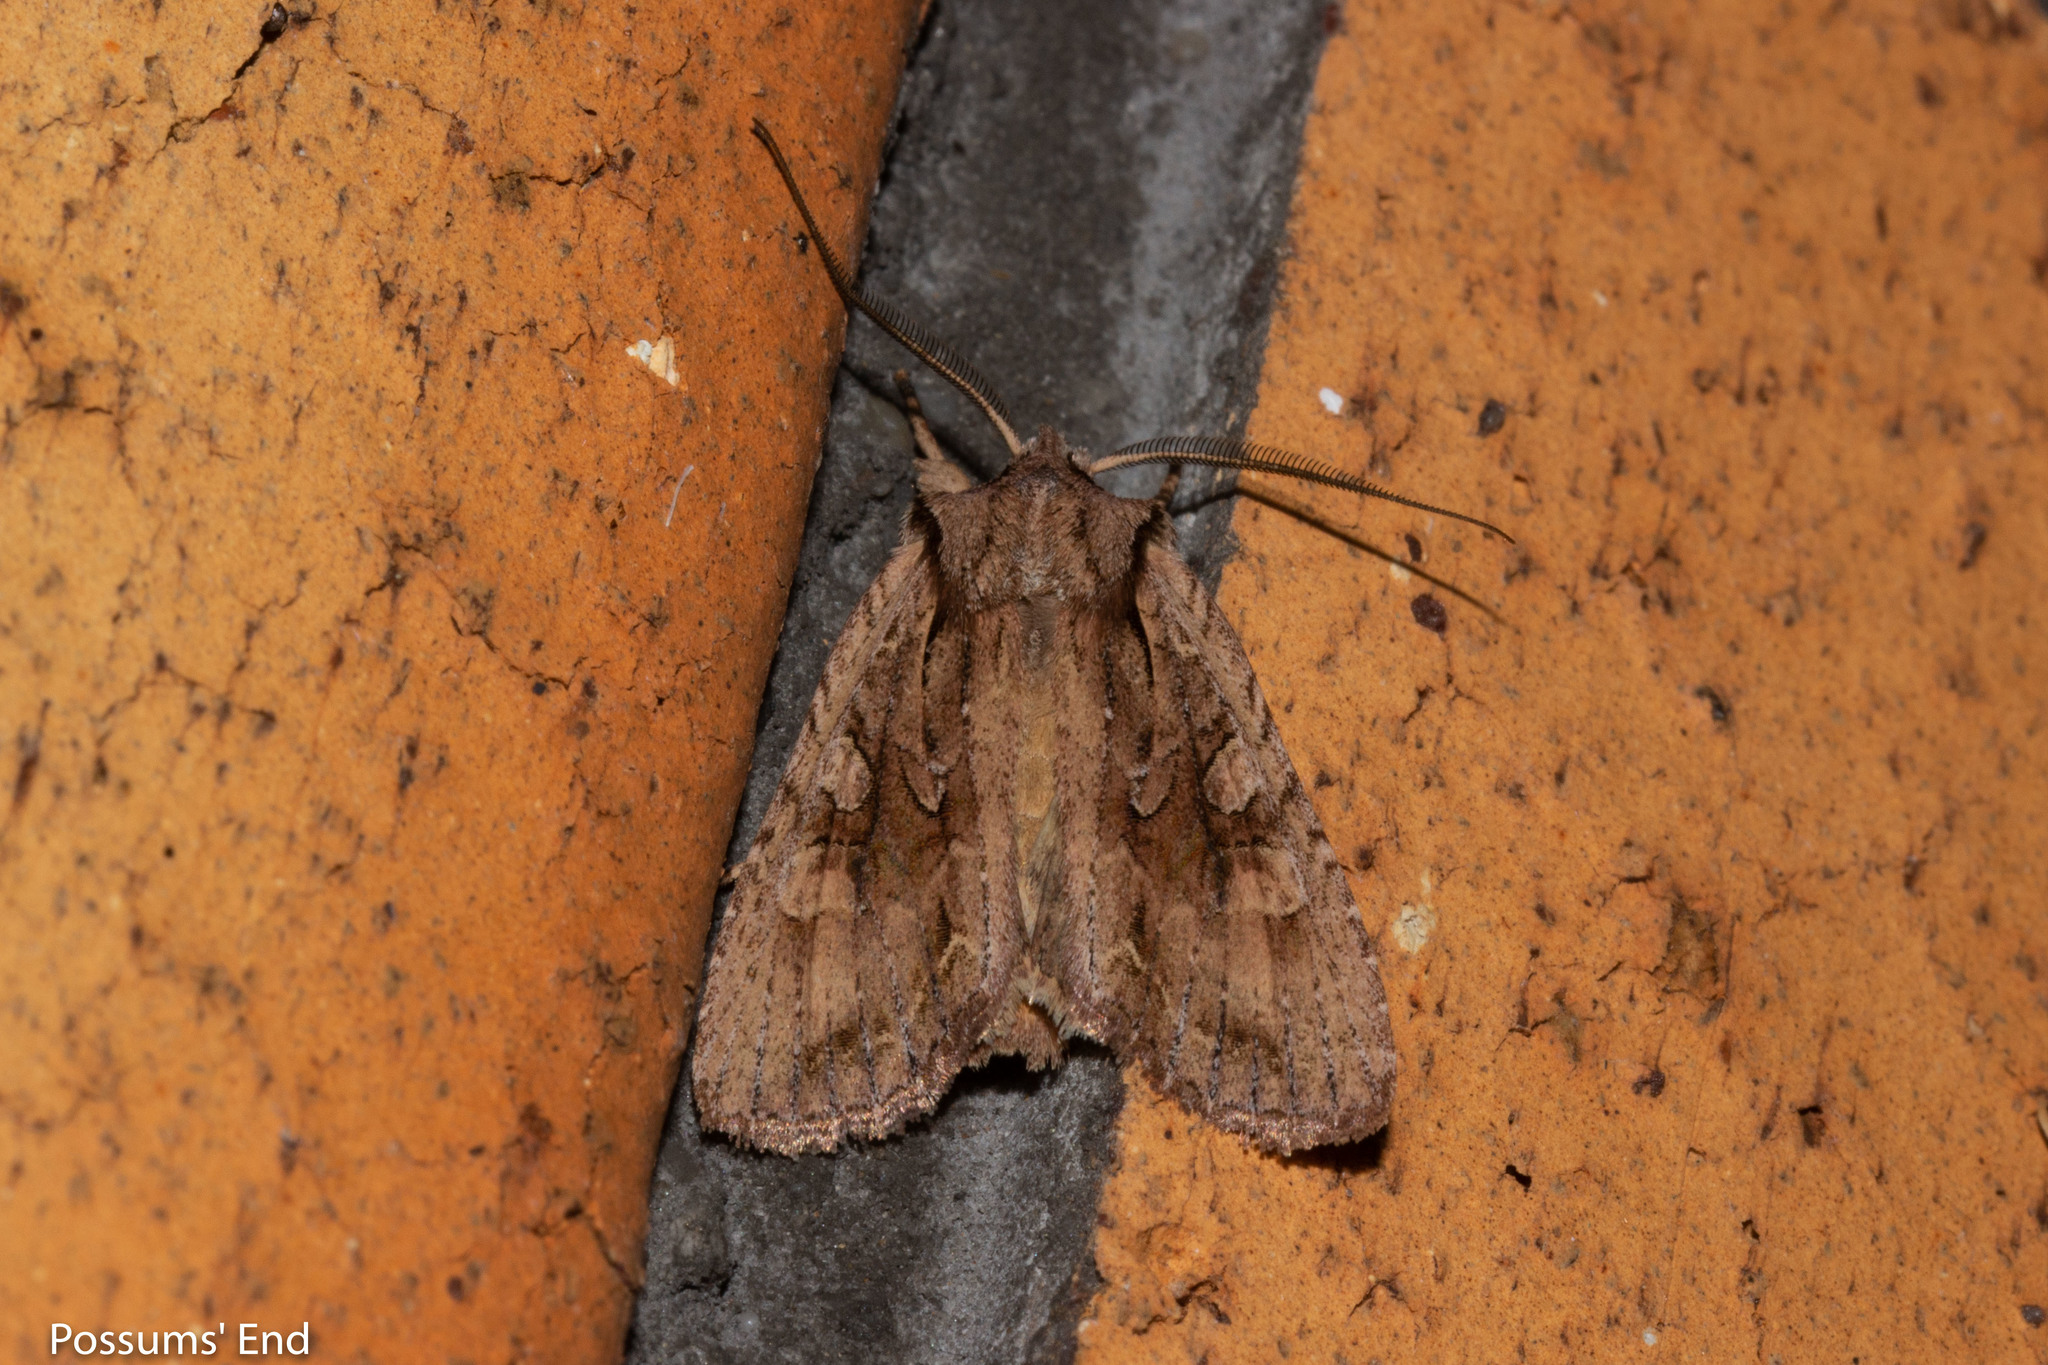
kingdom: Animalia
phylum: Arthropoda
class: Insecta
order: Lepidoptera
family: Noctuidae
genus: Ichneutica
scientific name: Ichneutica
